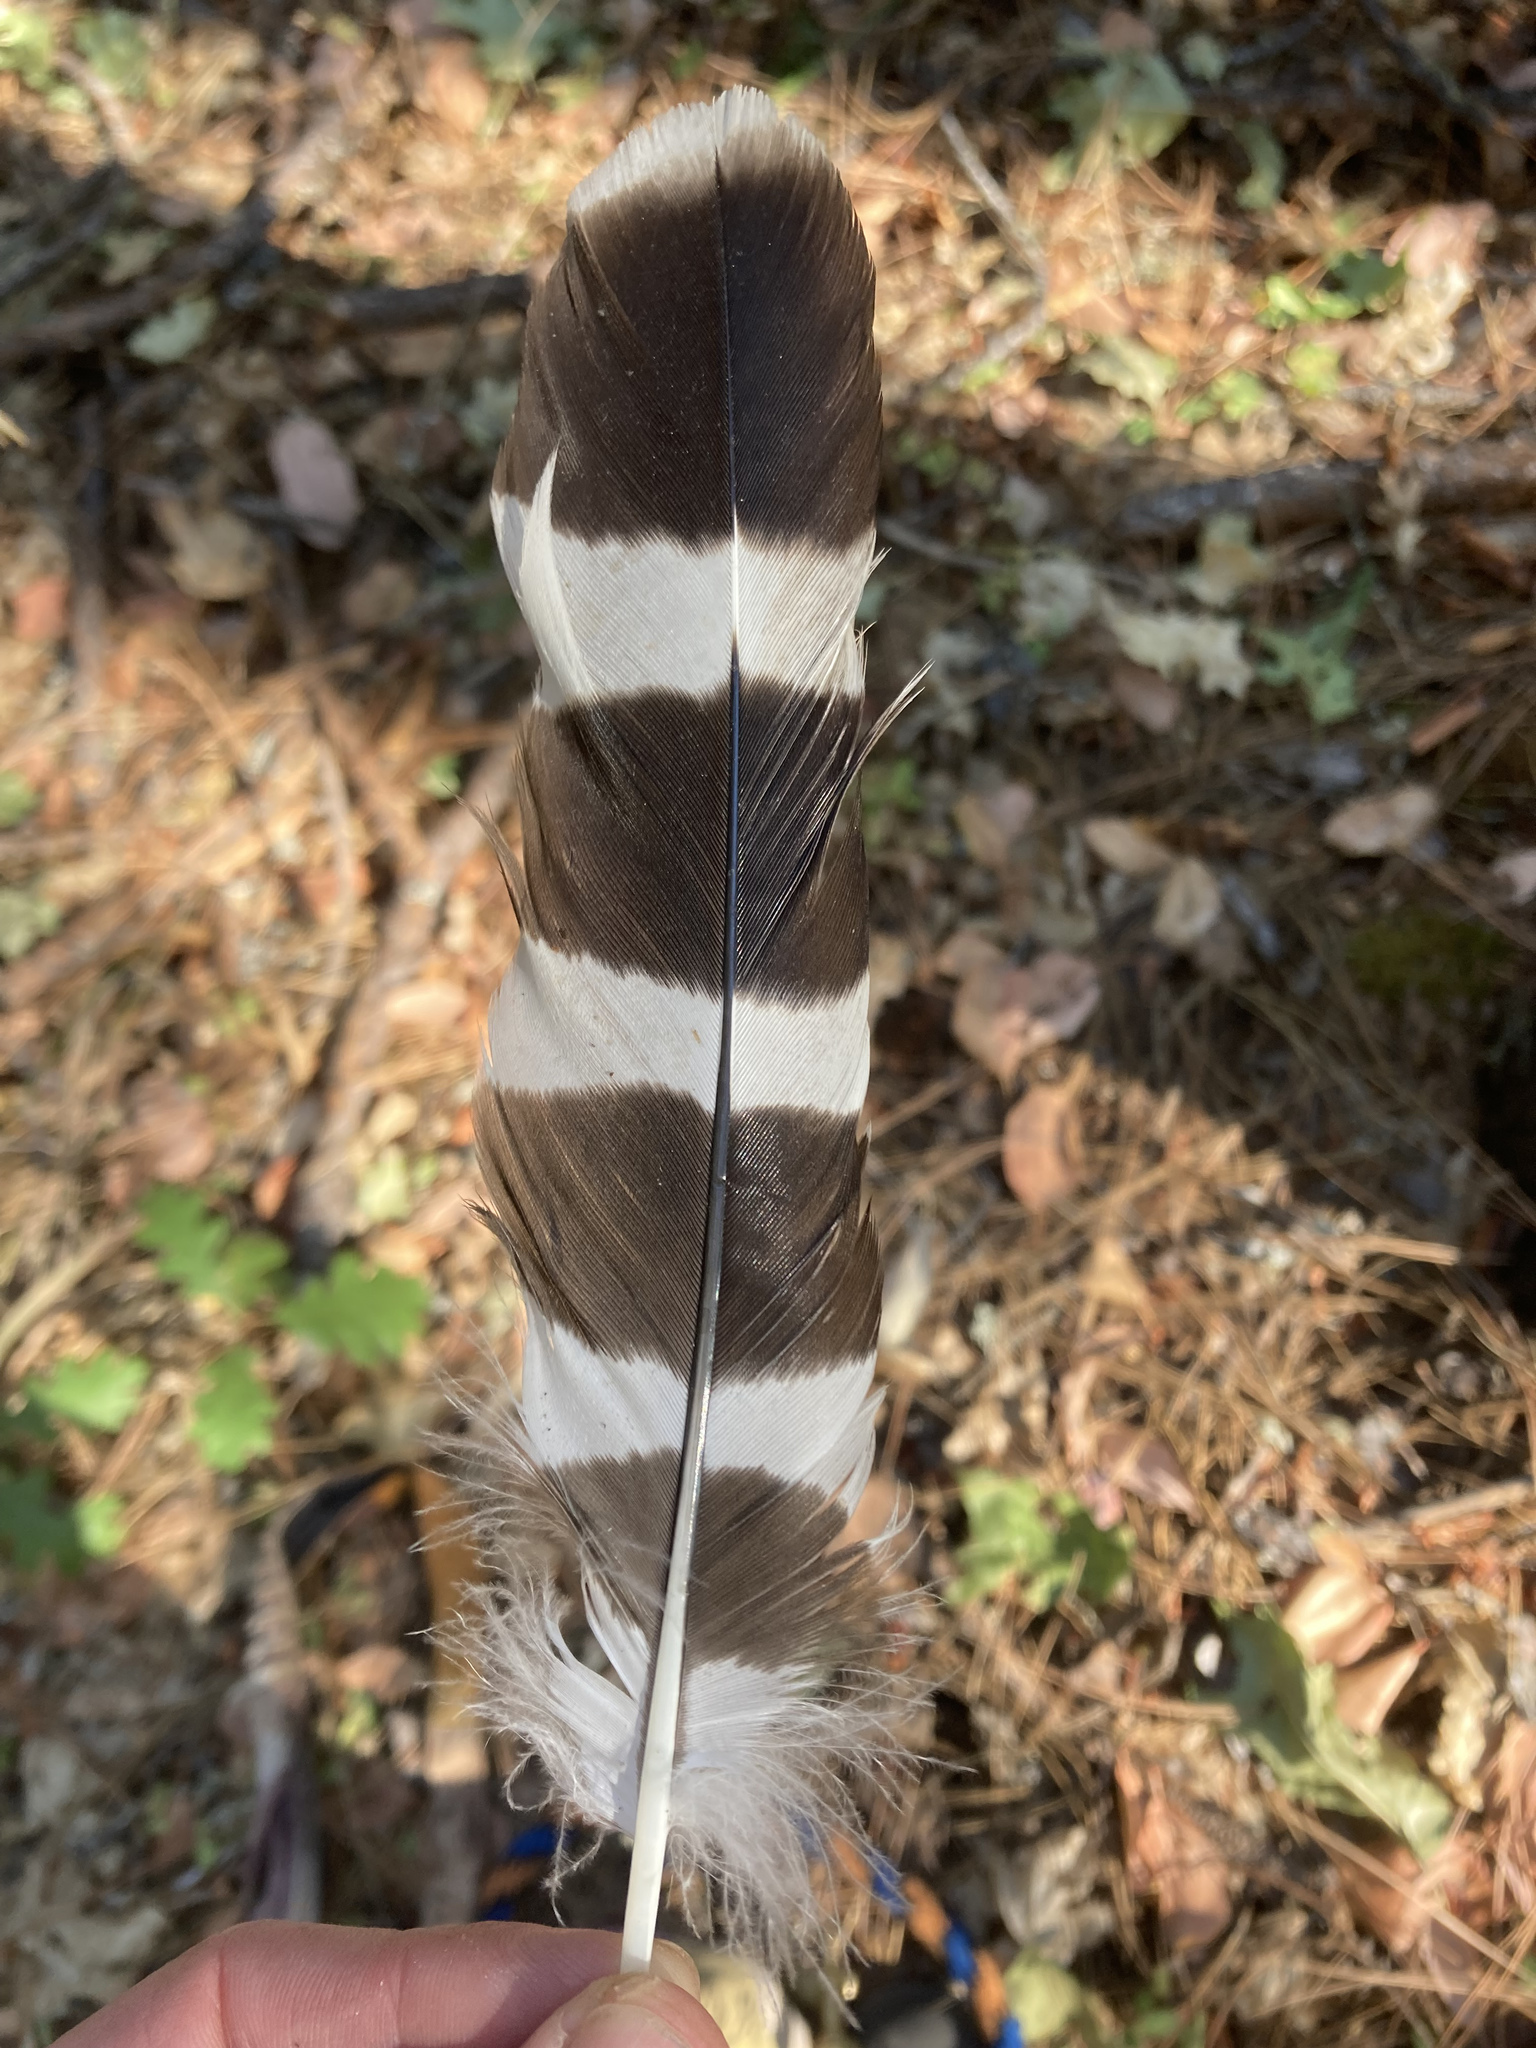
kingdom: Animalia
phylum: Chordata
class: Aves
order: Accipitriformes
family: Accipitridae
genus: Buteo
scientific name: Buteo lineatus
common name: Red-shouldered hawk
